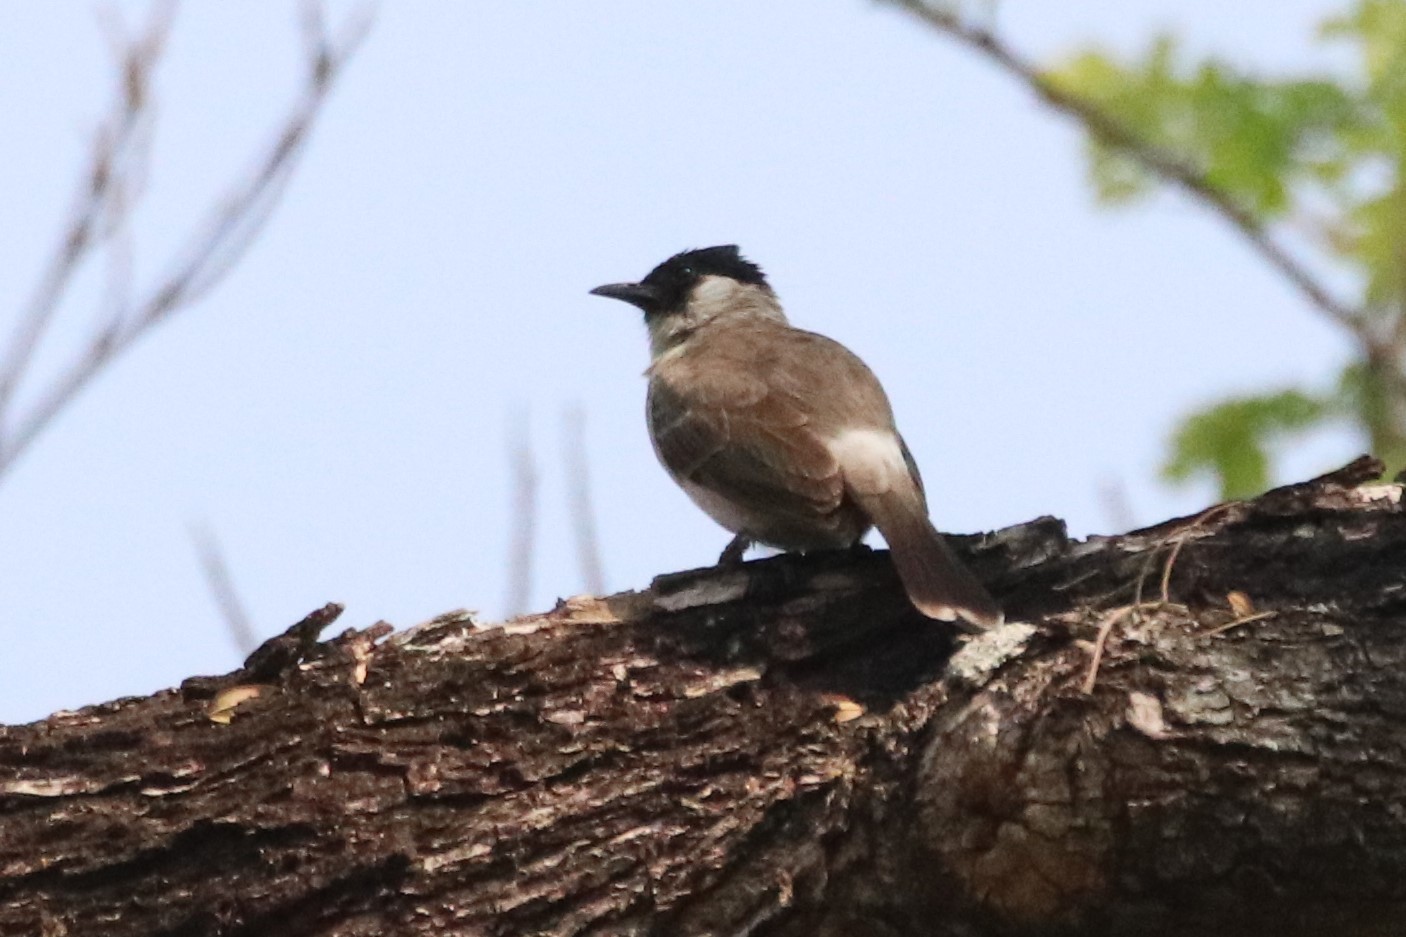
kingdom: Animalia
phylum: Chordata
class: Aves
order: Passeriformes
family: Pycnonotidae
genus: Pycnonotus
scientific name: Pycnonotus aurigaster
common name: Sooty-headed bulbul
